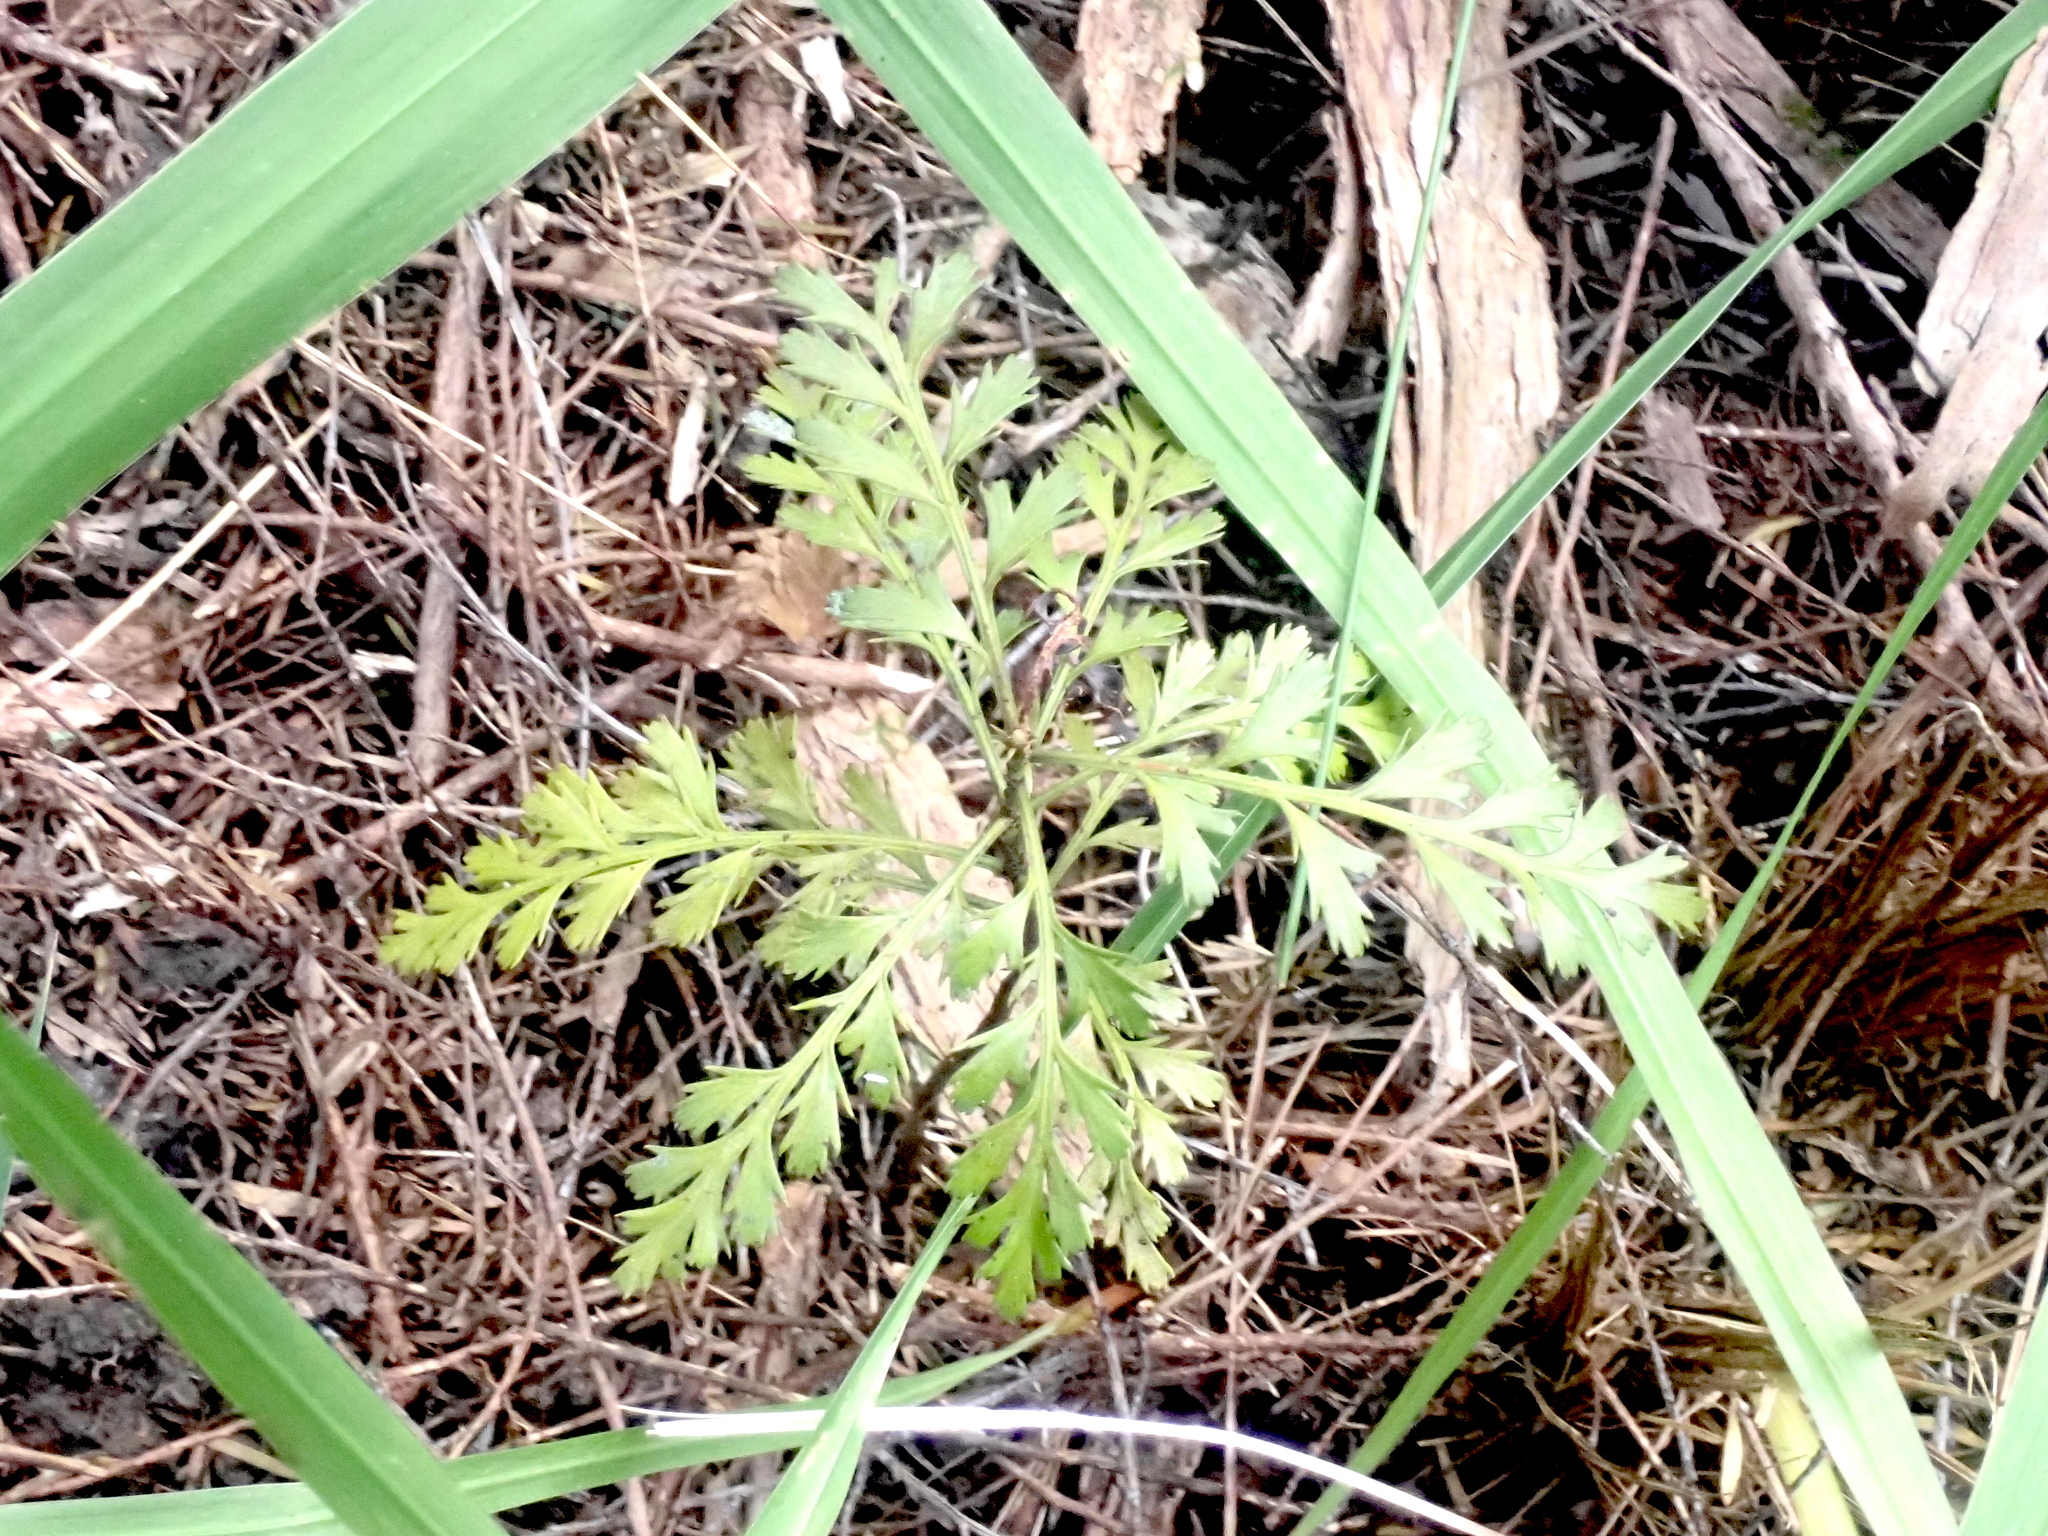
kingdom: Plantae
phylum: Tracheophyta
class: Pinopsida
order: Pinales
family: Phyllocladaceae
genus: Phyllocladus
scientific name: Phyllocladus trichomanoides
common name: Celery pine
